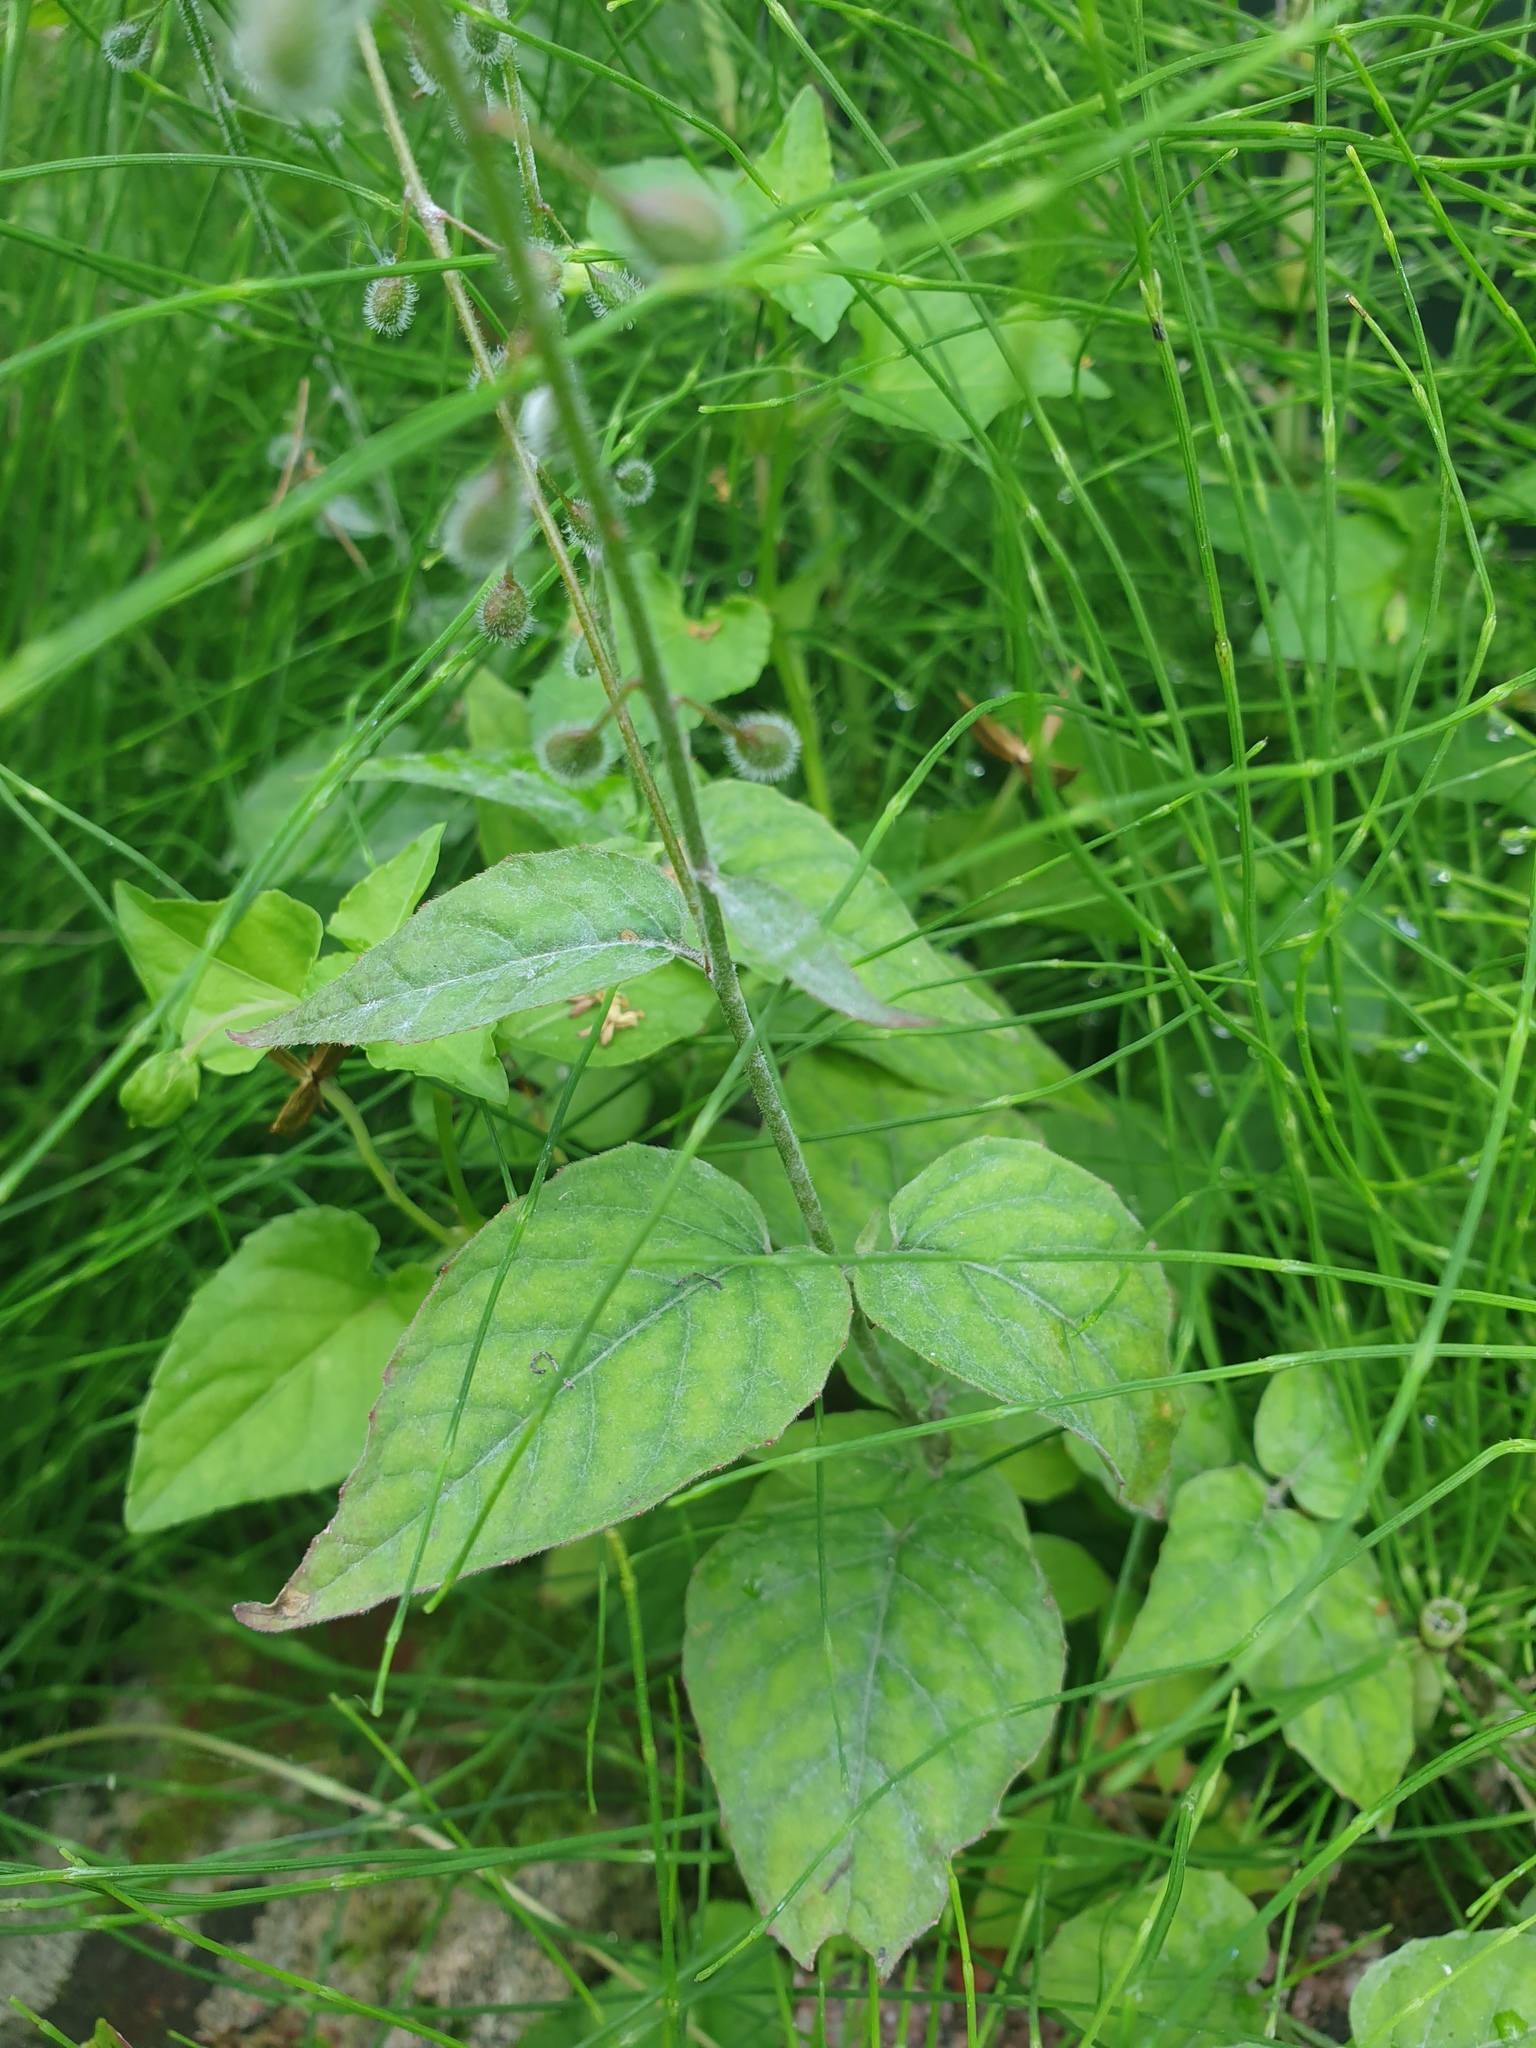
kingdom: Plantae
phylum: Tracheophyta
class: Magnoliopsida
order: Myrtales
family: Onagraceae
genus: Circaea
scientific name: Circaea lutetiana
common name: Enchanter's-nightshade
